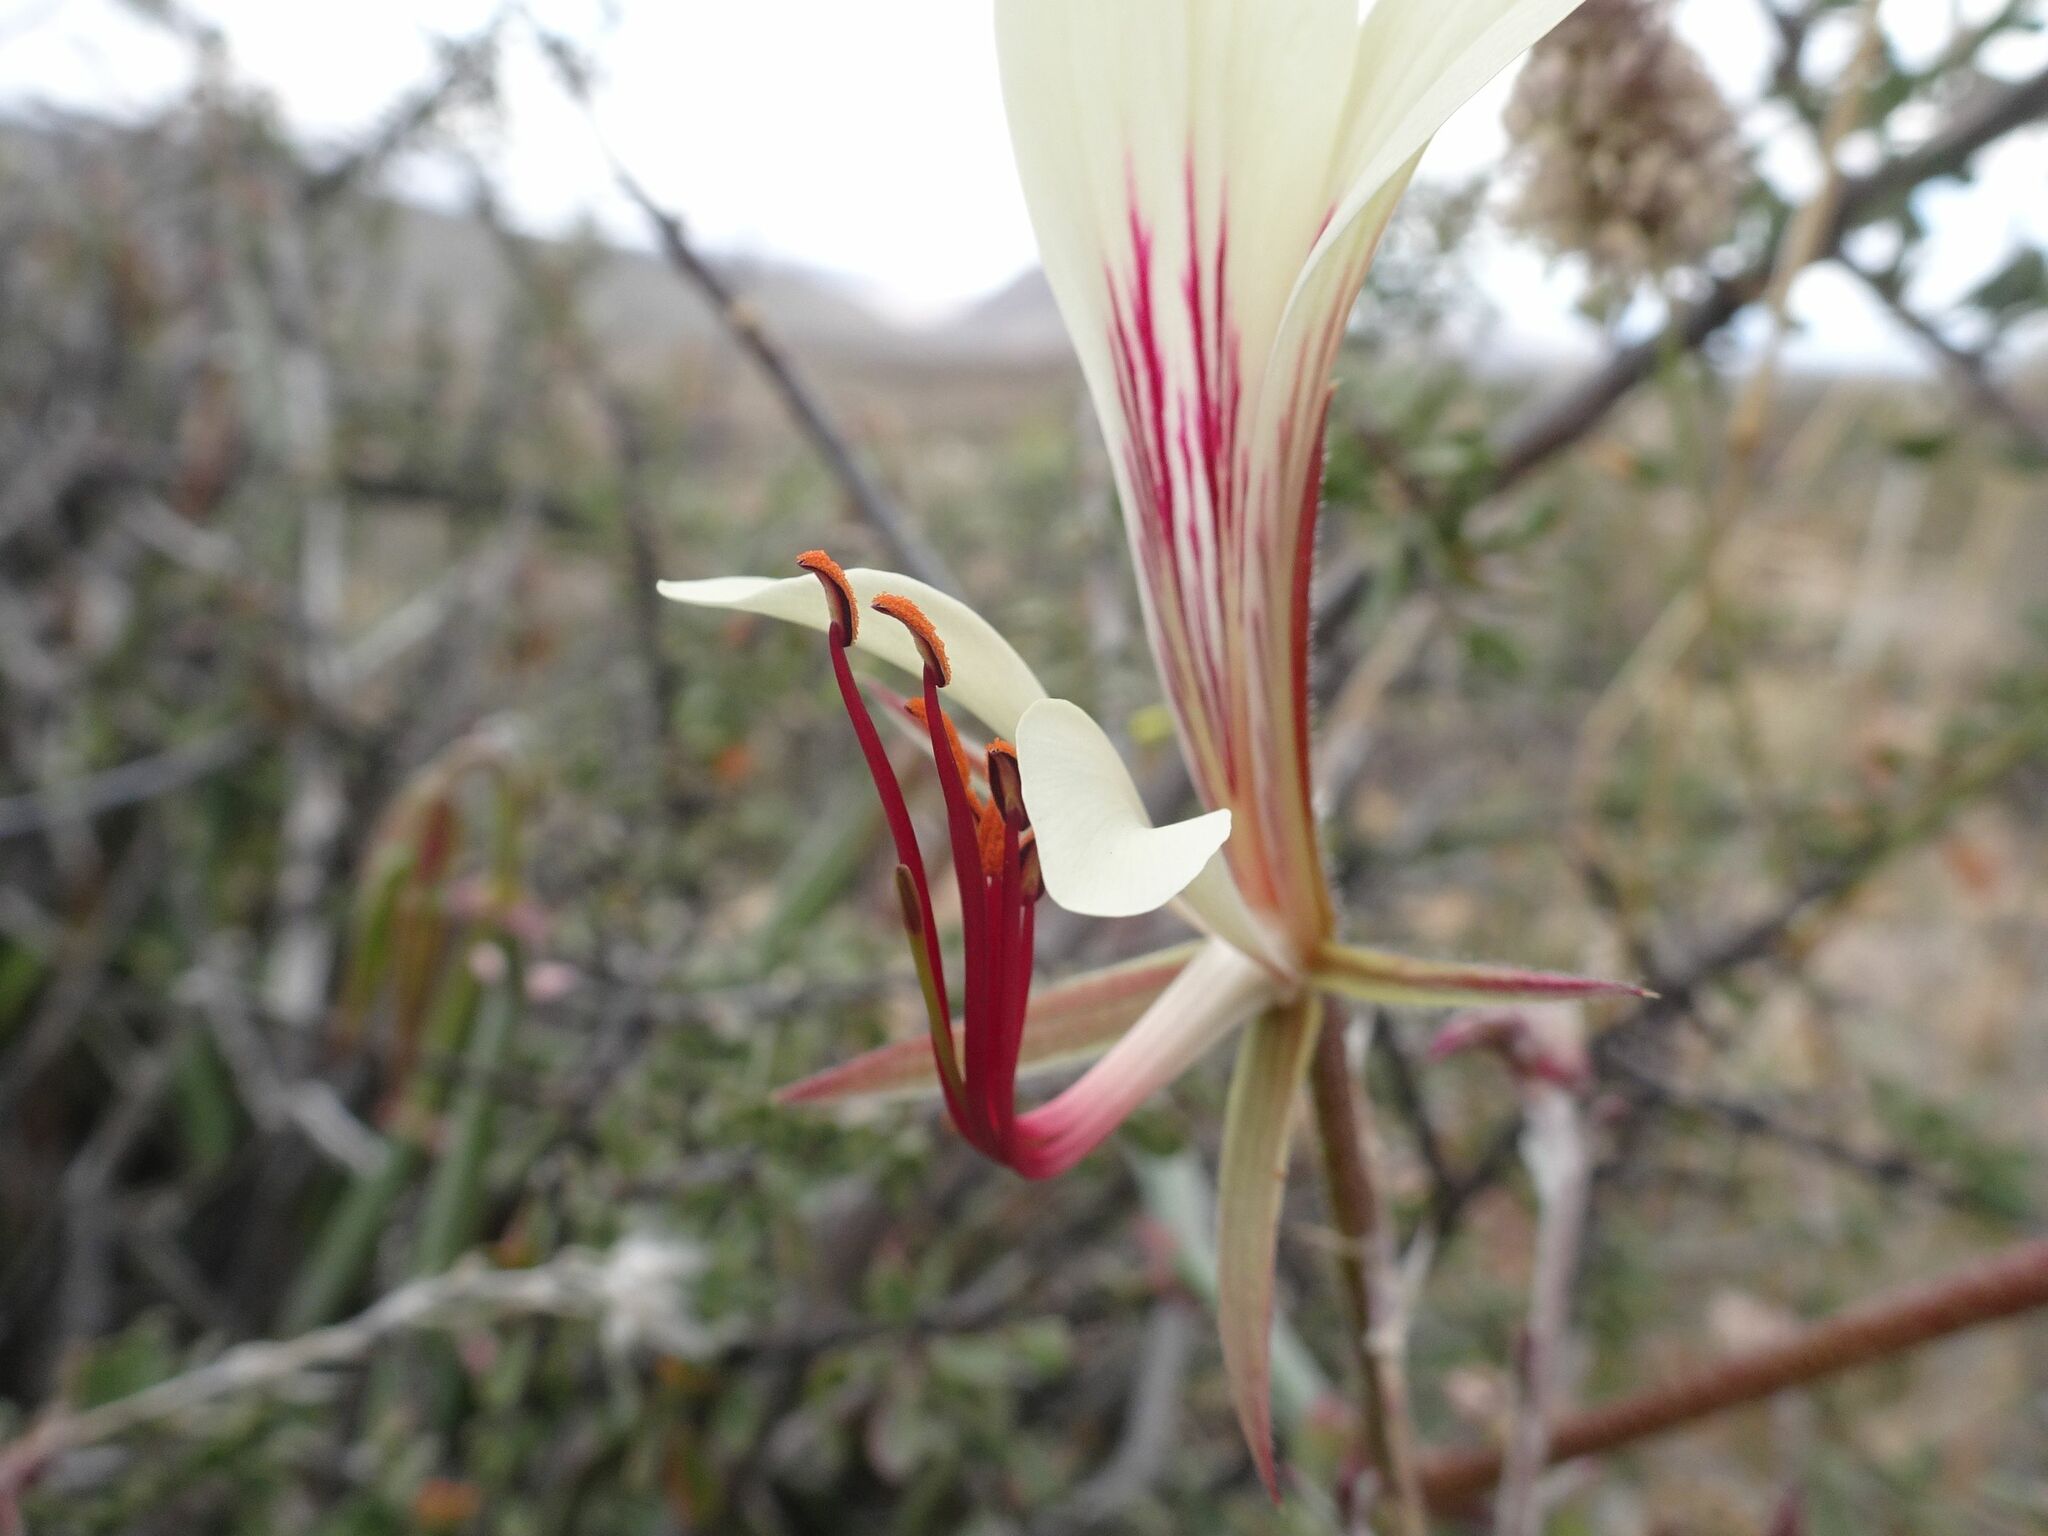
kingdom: Plantae
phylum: Tracheophyta
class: Magnoliopsida
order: Geraniales
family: Geraniaceae
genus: Pelargonium
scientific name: Pelargonium tetragonum
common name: Square-stack crane's-bill
